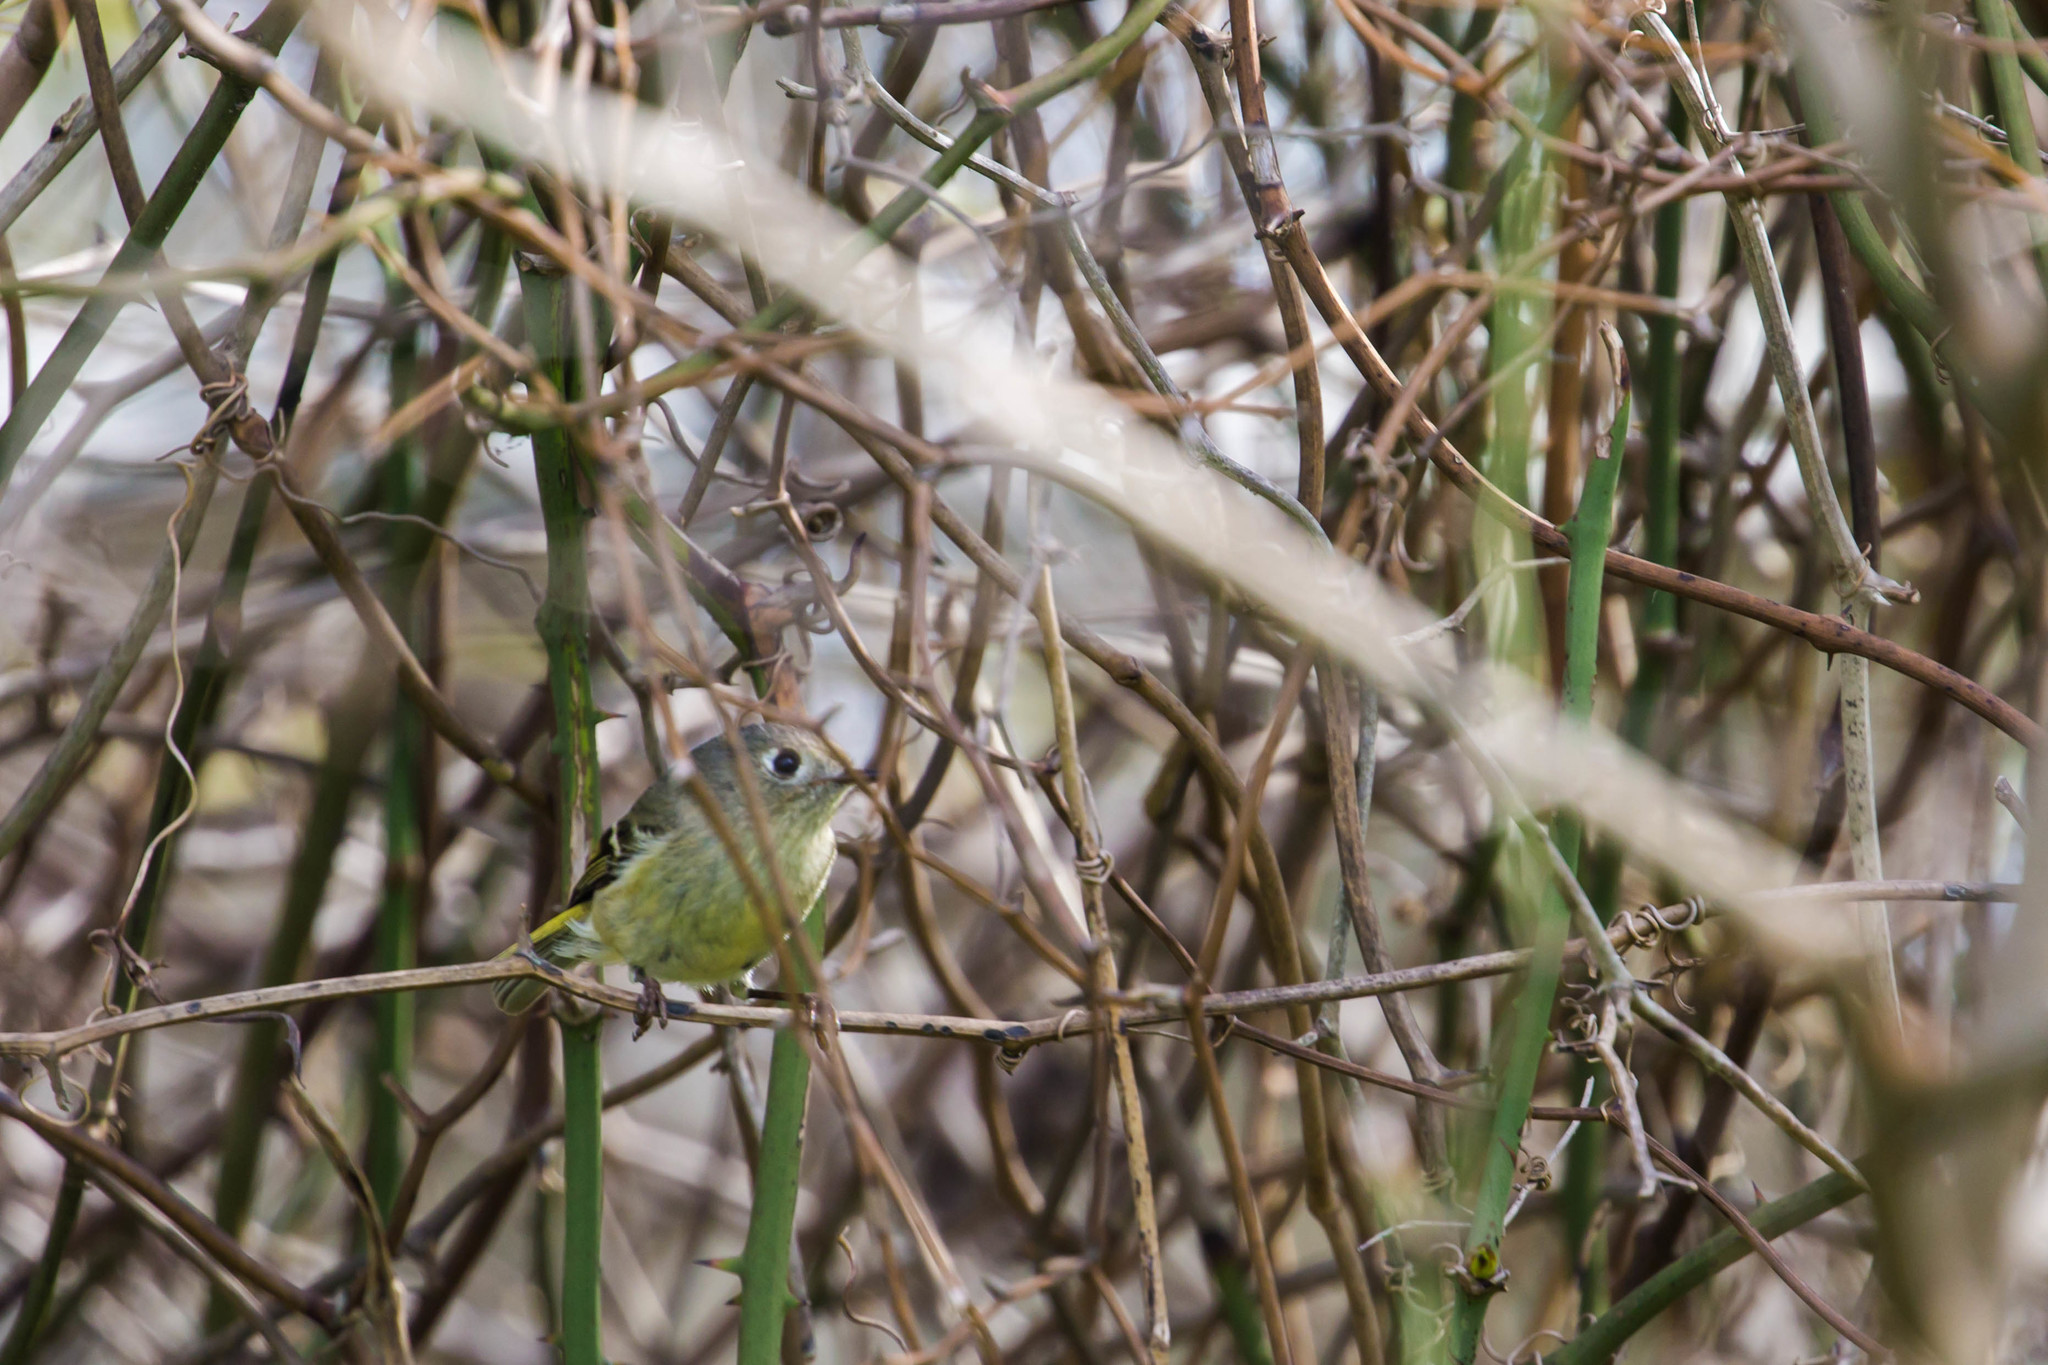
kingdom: Animalia
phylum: Chordata
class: Aves
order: Passeriformes
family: Regulidae
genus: Regulus
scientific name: Regulus calendula
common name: Ruby-crowned kinglet
